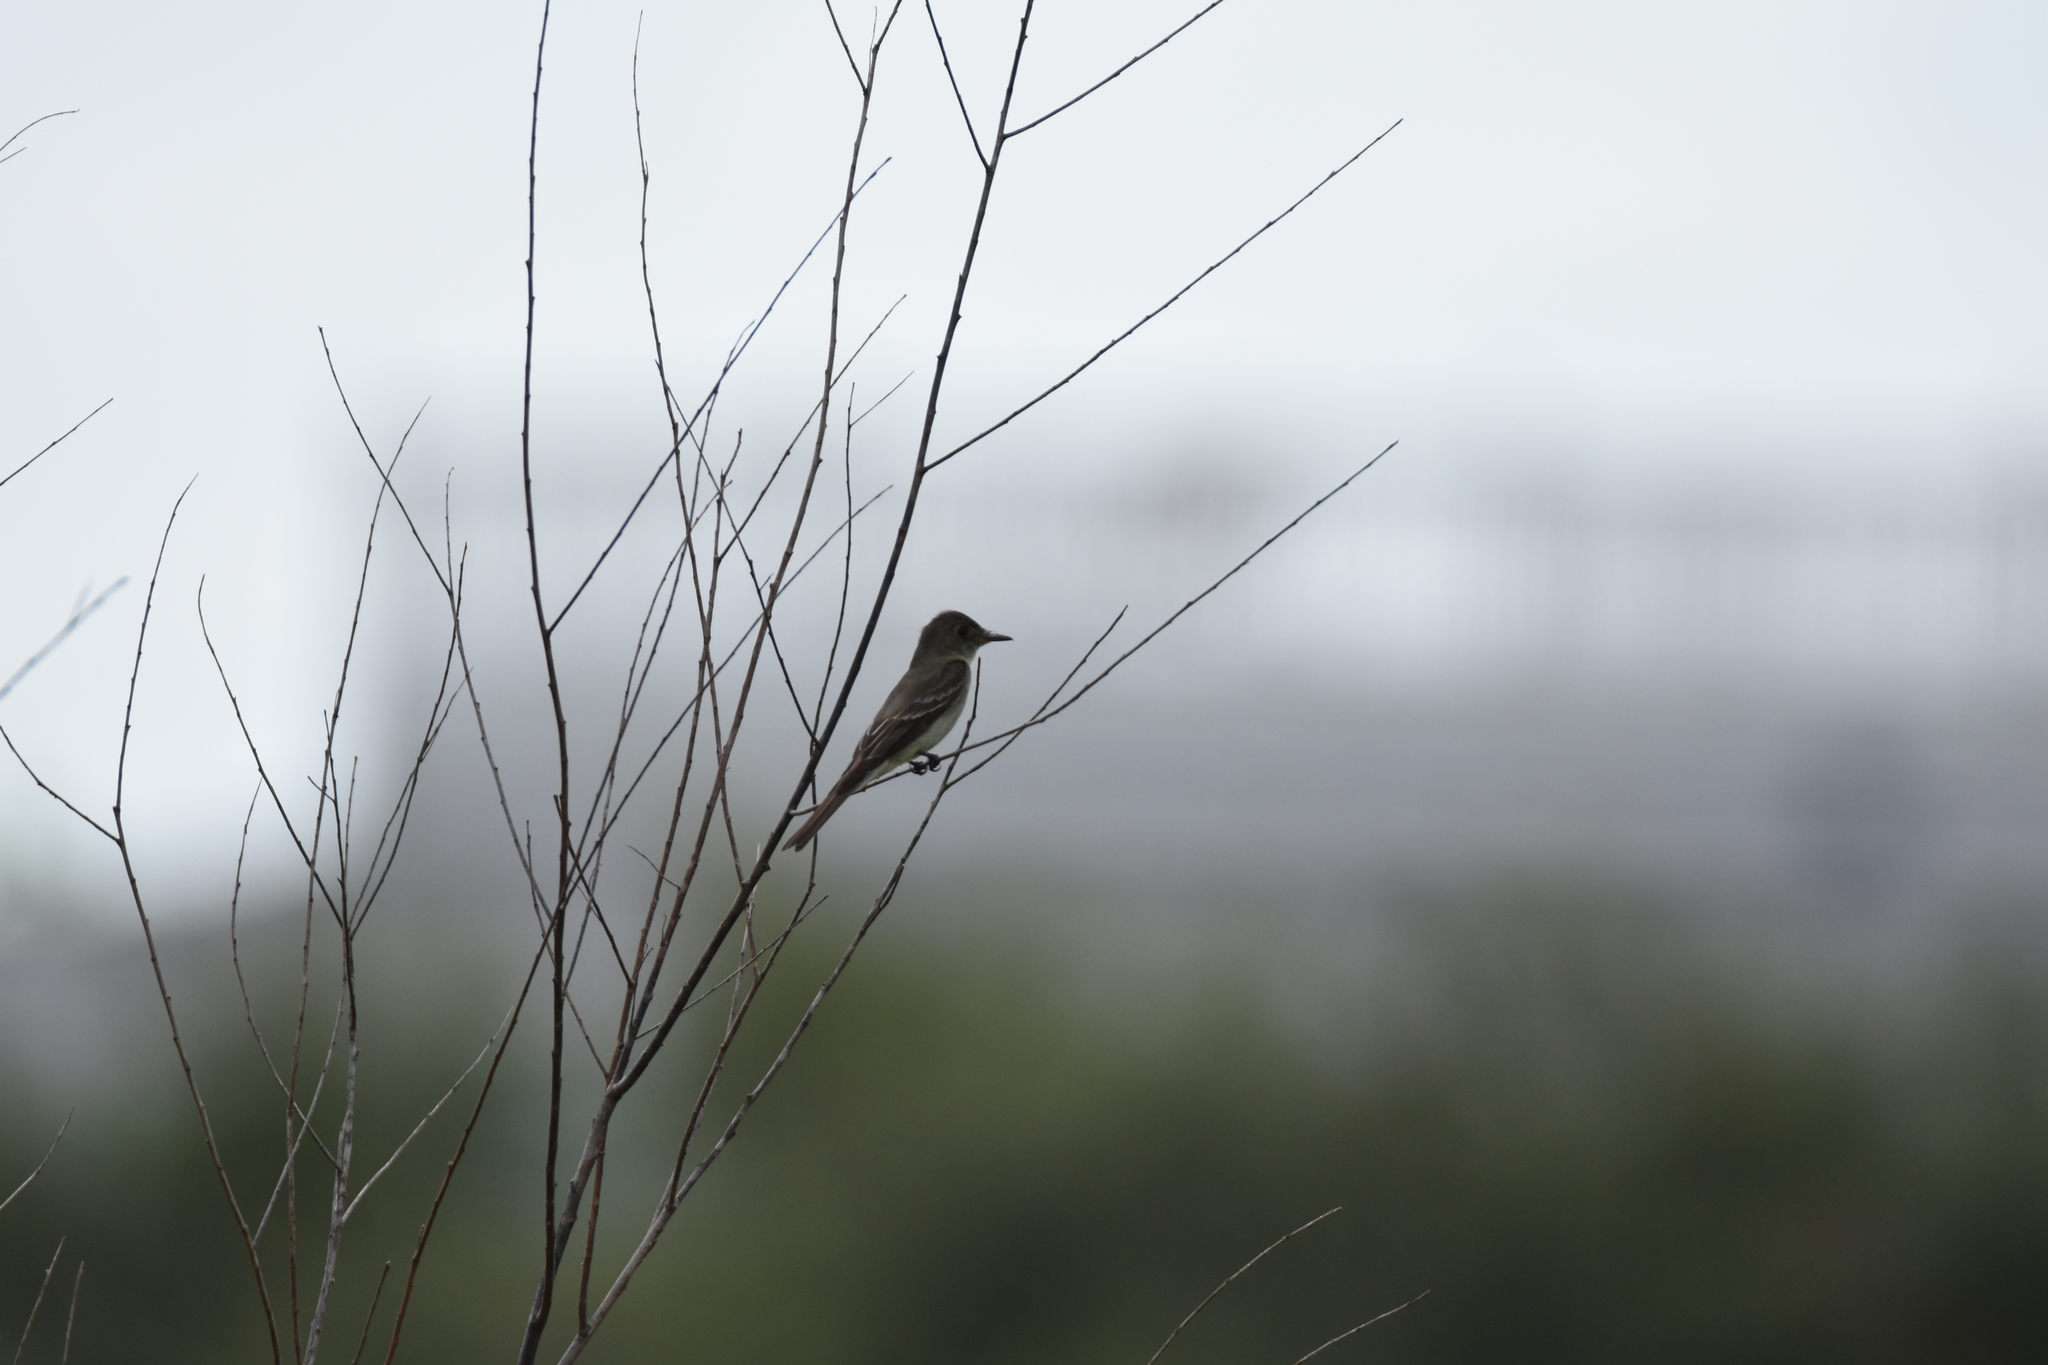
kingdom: Animalia
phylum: Chordata
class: Aves
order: Passeriformes
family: Tyrannidae
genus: Contopus
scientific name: Contopus virens
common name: Eastern wood-pewee
